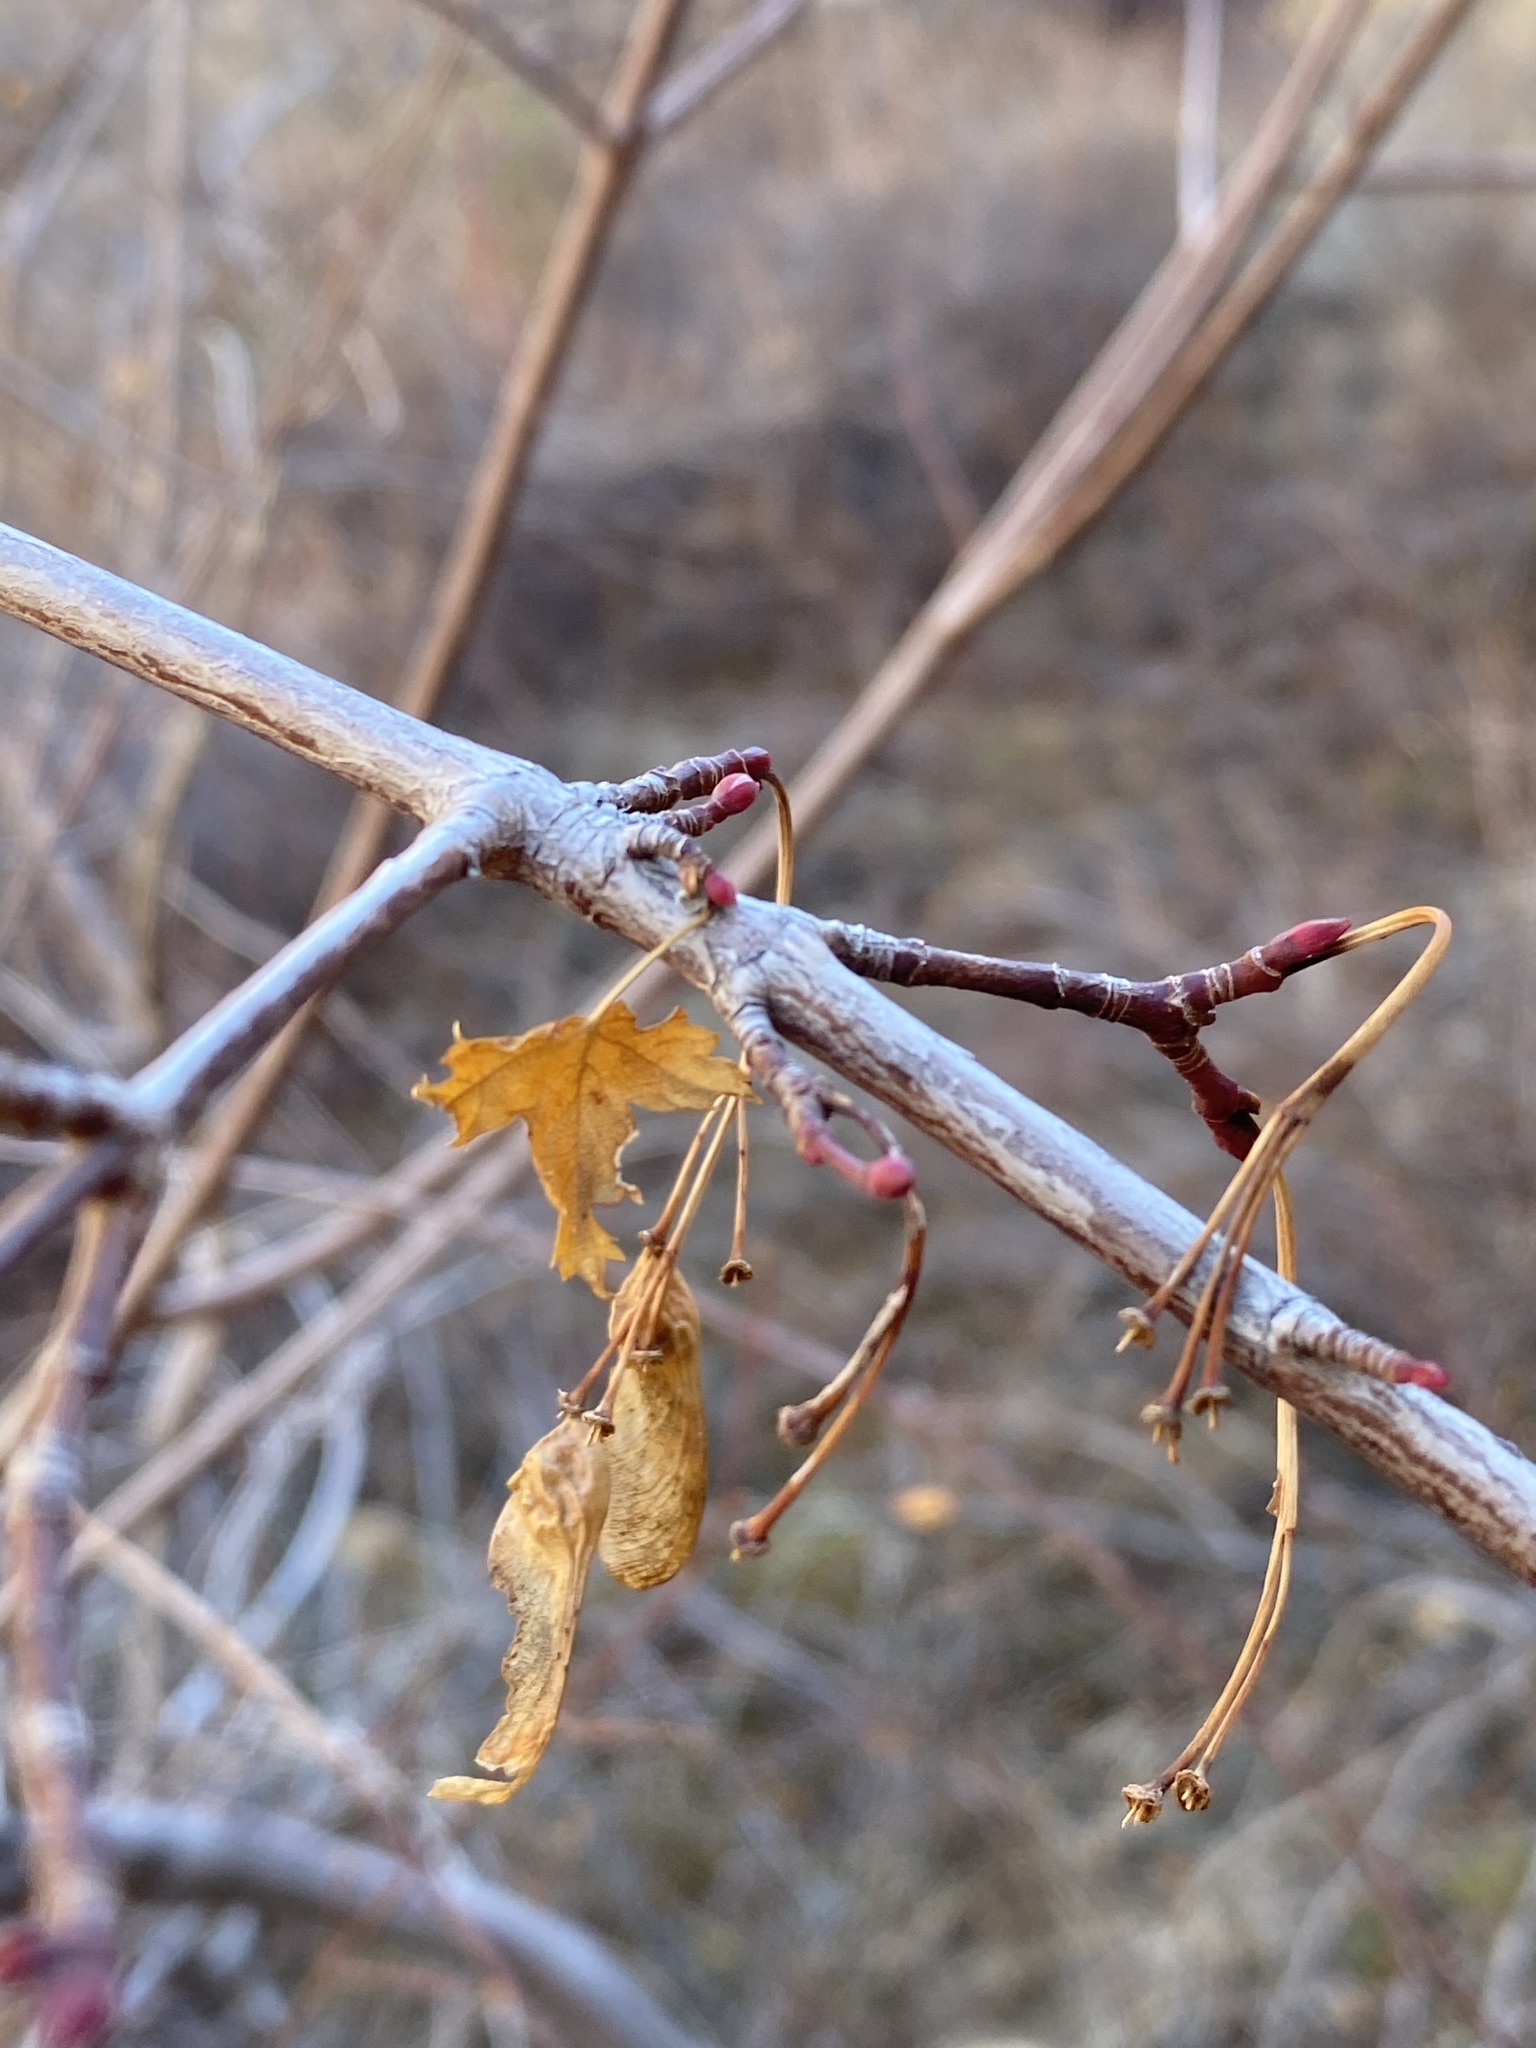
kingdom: Plantae
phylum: Tracheophyta
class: Magnoliopsida
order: Sapindales
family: Sapindaceae
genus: Acer
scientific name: Acer glabrum
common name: Rocky mountain maple
